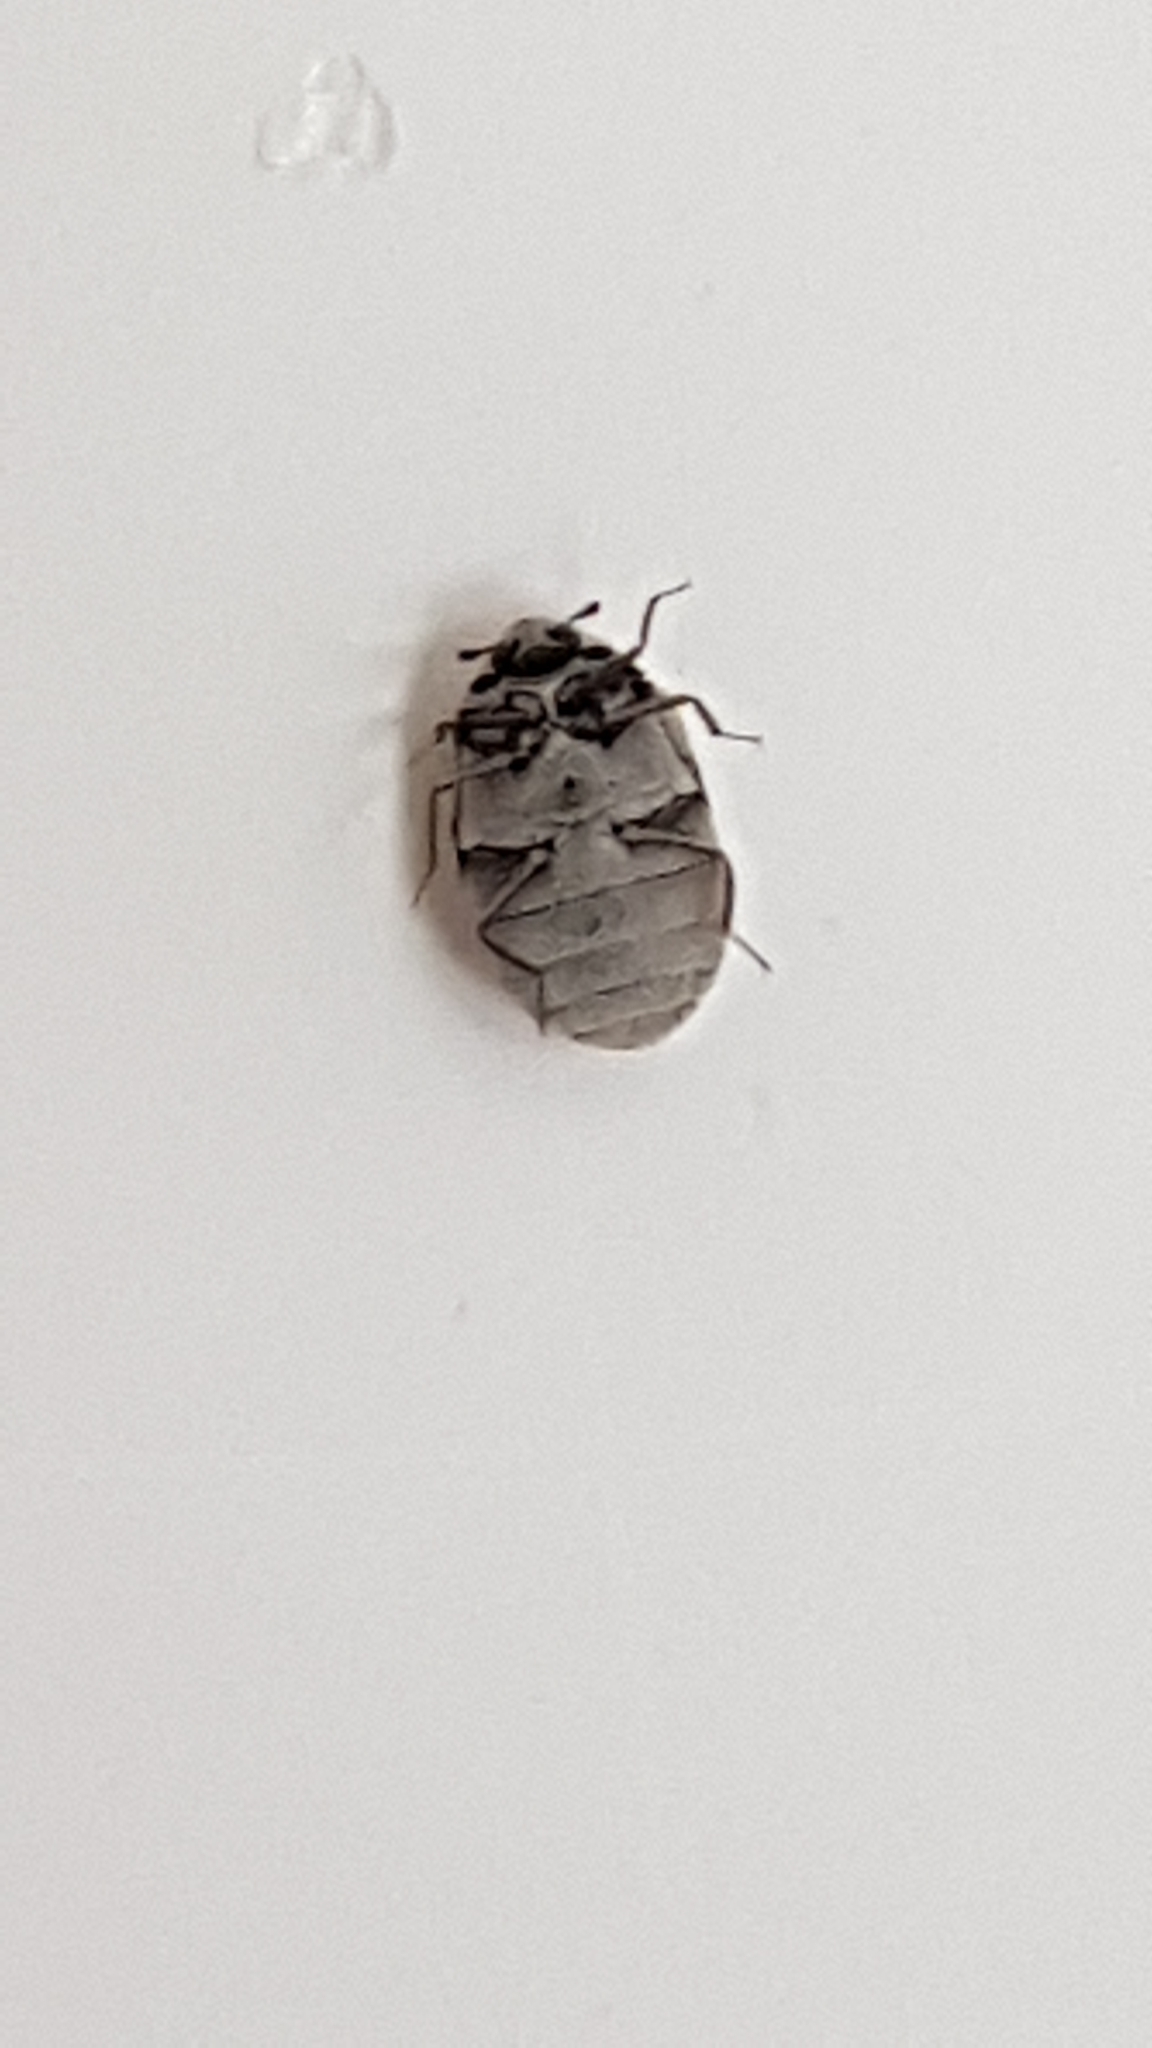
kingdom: Animalia
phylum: Arthropoda
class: Insecta
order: Coleoptera
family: Dermestidae
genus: Anthrenus
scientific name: Anthrenus sarnicus
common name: Guernsey carpet beetle
